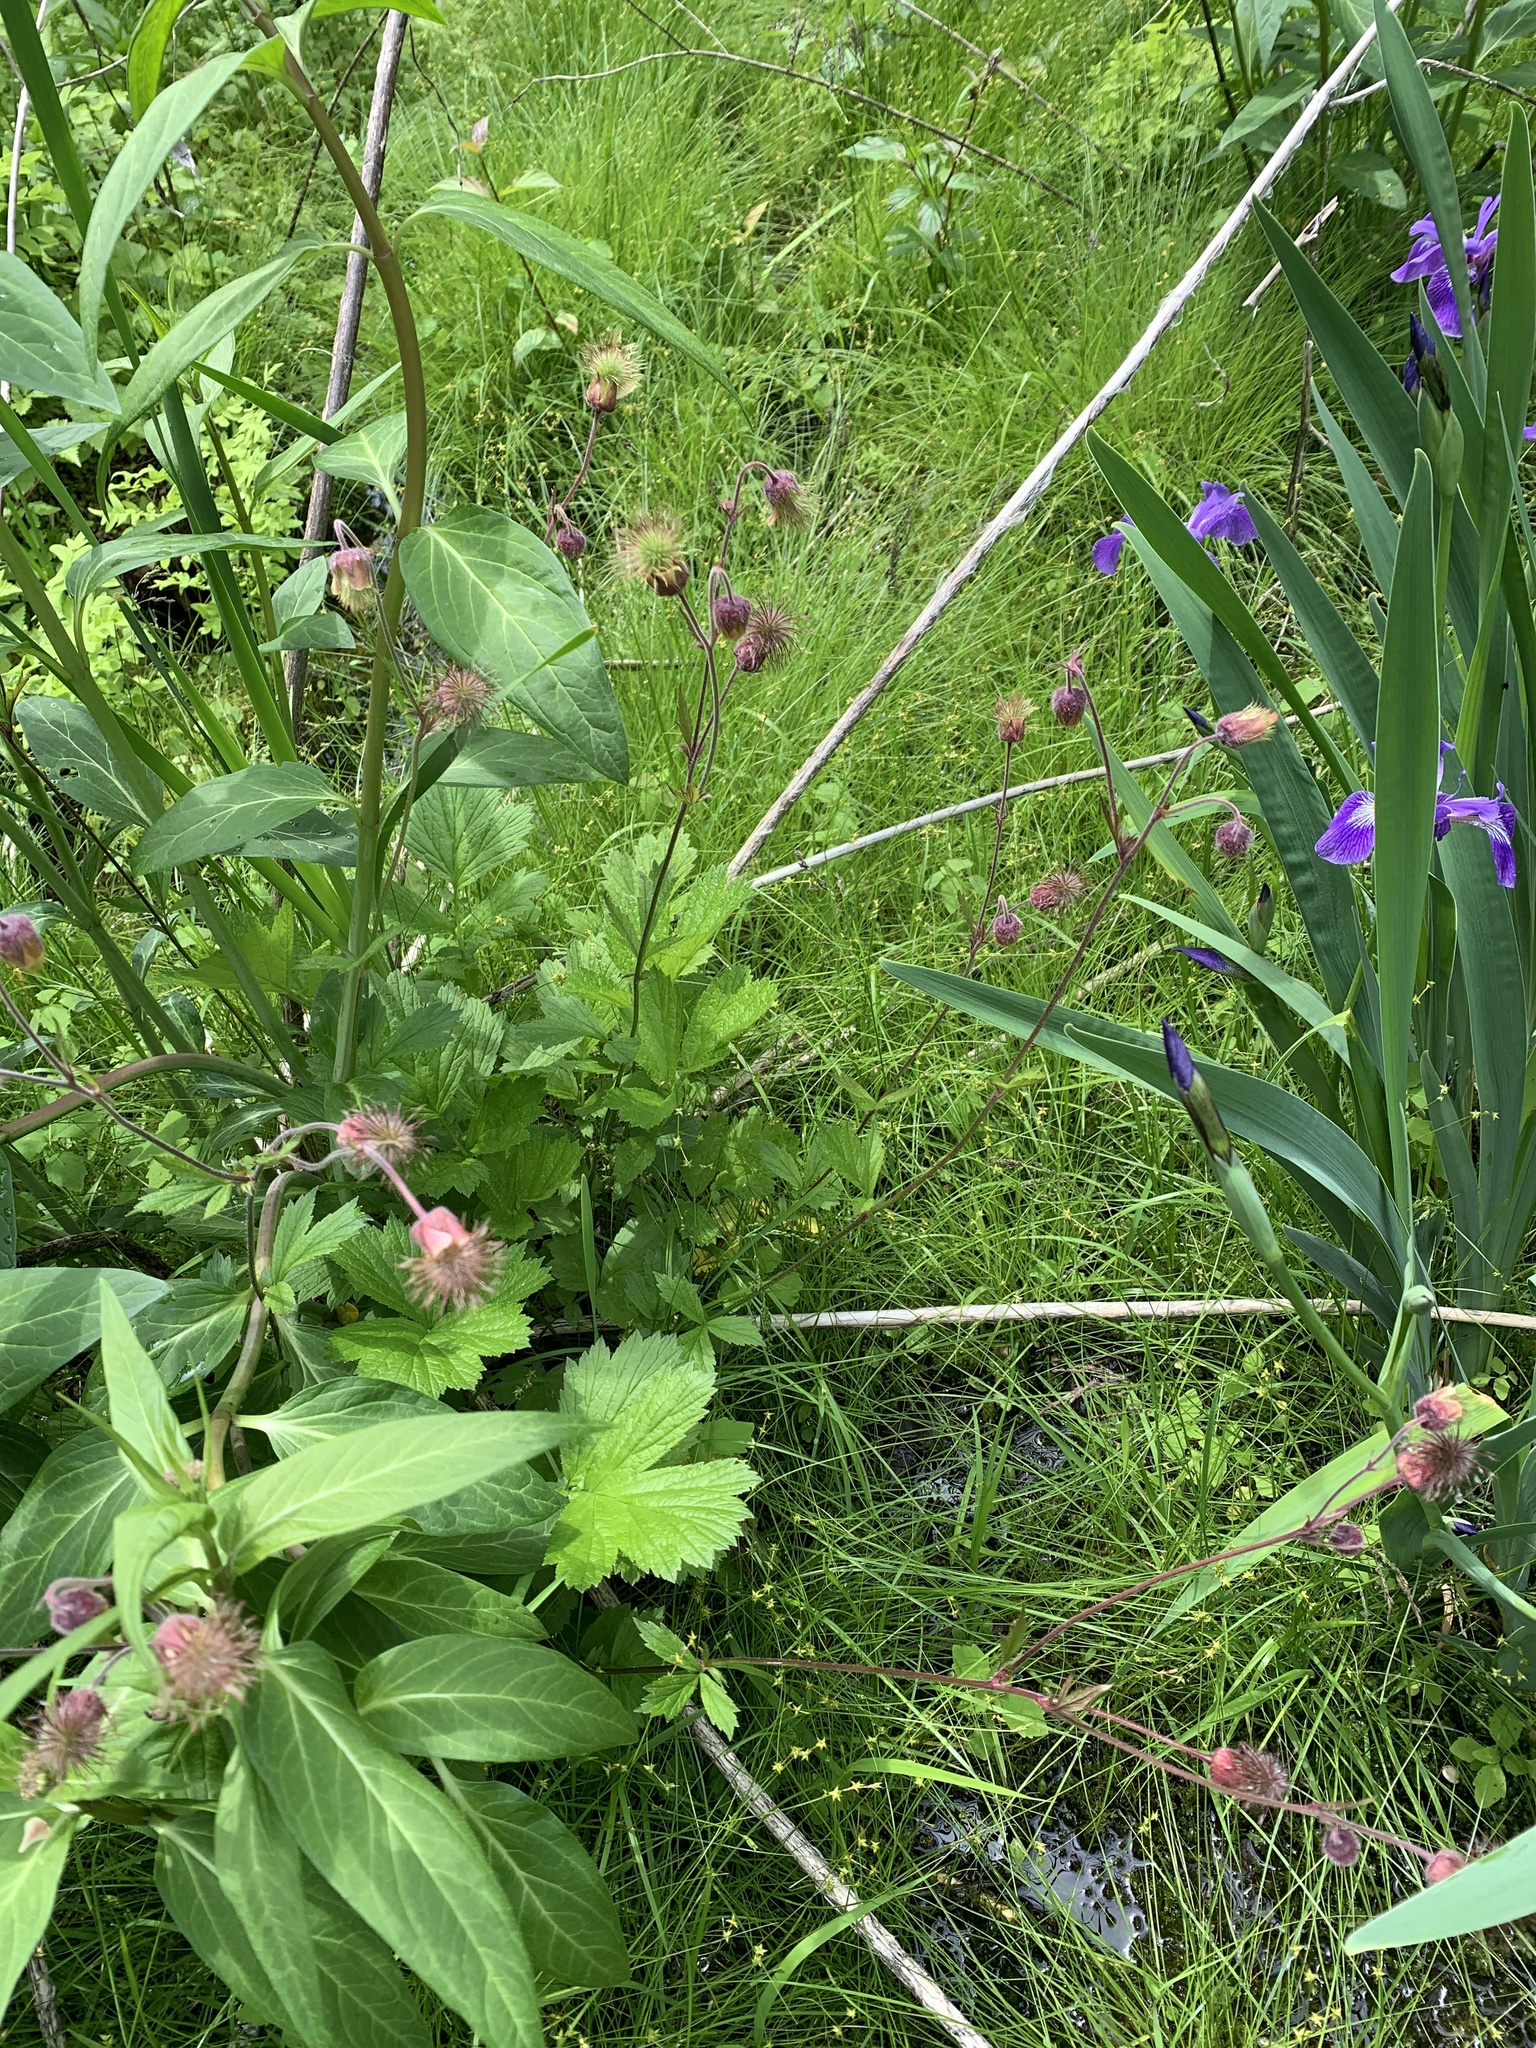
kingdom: Plantae
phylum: Tracheophyta
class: Magnoliopsida
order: Rosales
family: Rosaceae
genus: Geum
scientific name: Geum rivale
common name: Water avens
